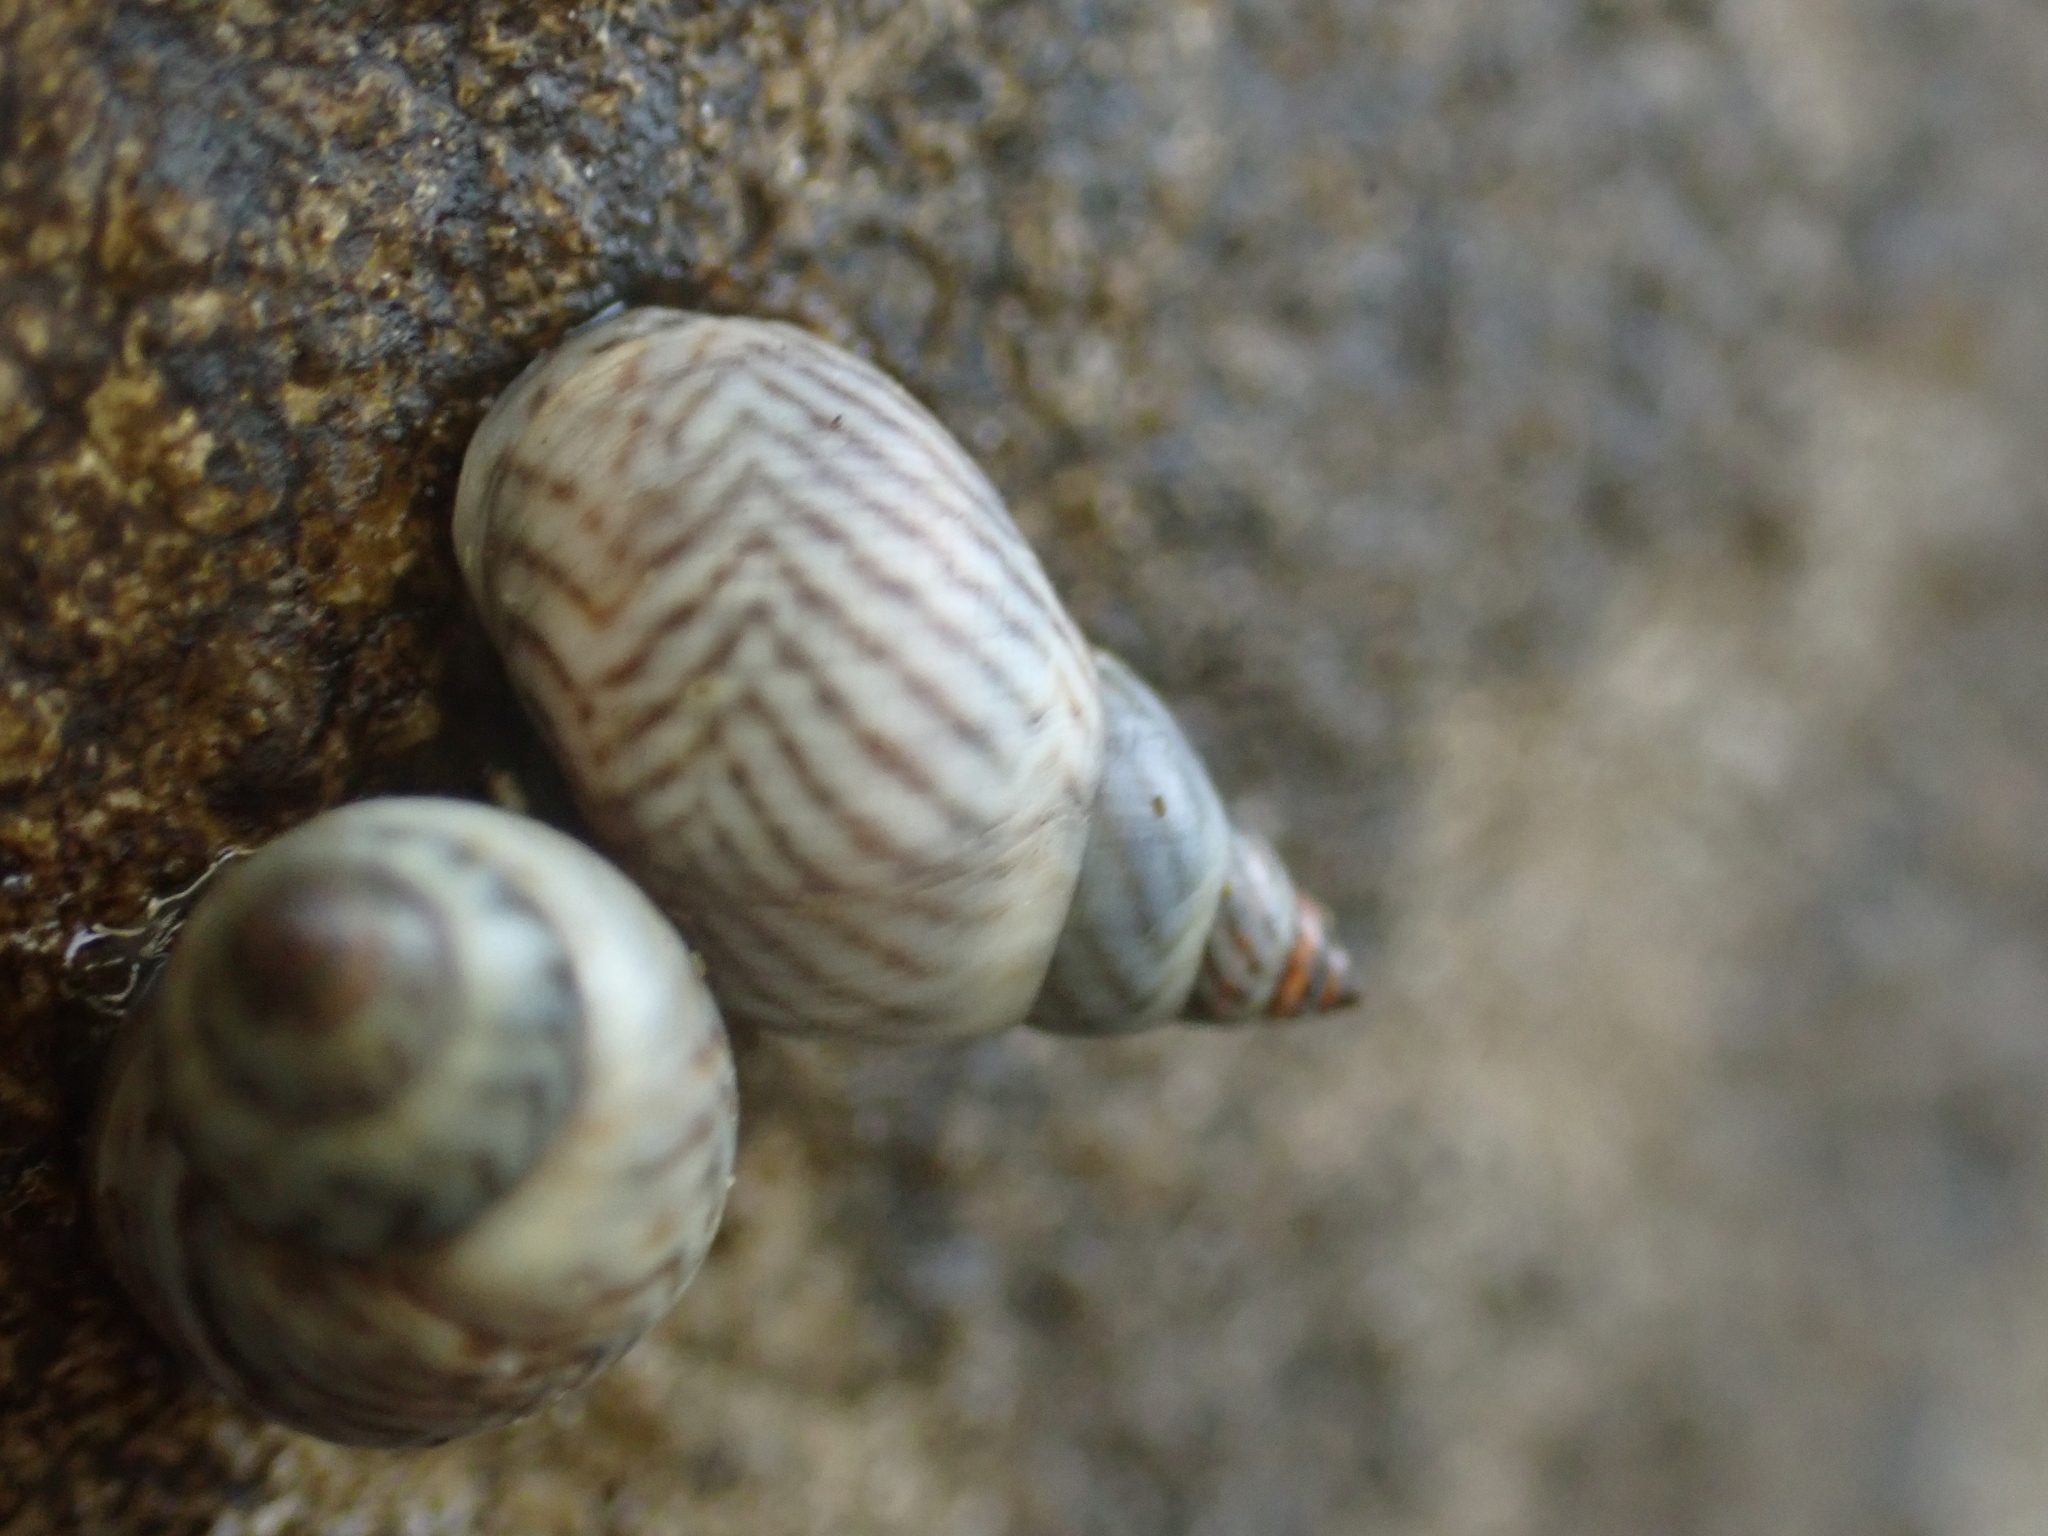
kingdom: Animalia
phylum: Mollusca
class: Gastropoda
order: Littorinimorpha
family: Littorinidae
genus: Echinolittorina
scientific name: Echinolittorina ziczac
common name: Zebra periwinkle
